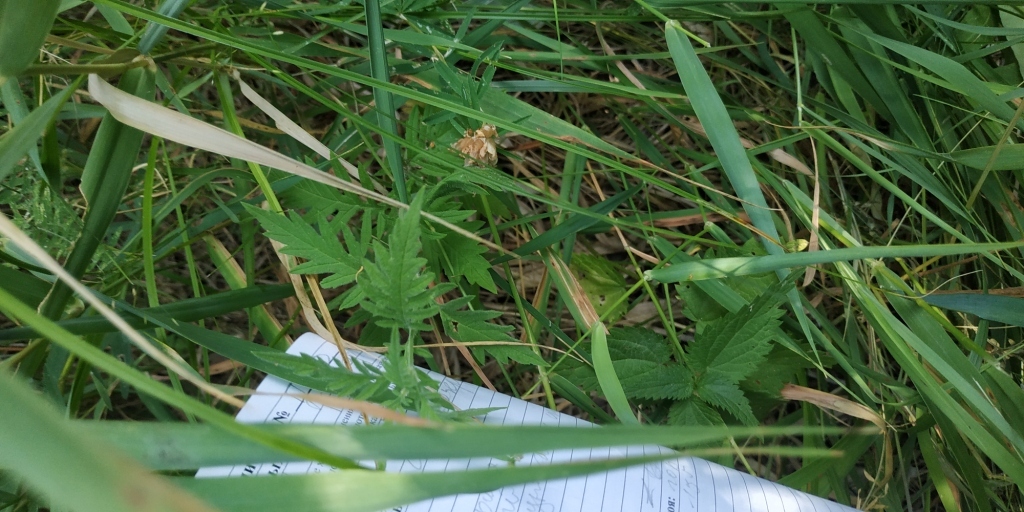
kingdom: Plantae
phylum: Tracheophyta
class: Magnoliopsida
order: Lamiales
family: Lamiaceae
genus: Lycopus
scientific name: Lycopus exaltatus
